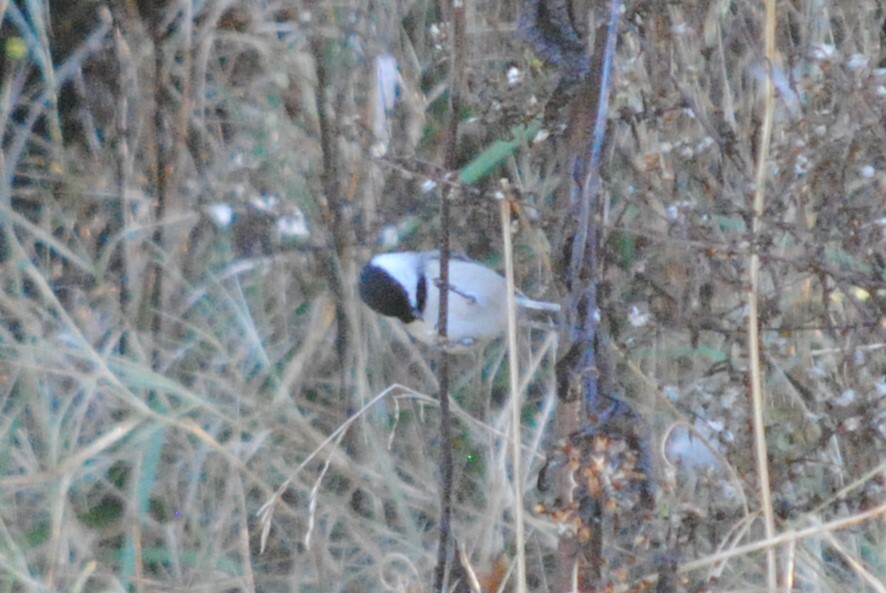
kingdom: Animalia
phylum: Chordata
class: Aves
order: Passeriformes
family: Paridae
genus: Poecile
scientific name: Poecile carolinensis
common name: Carolina chickadee
